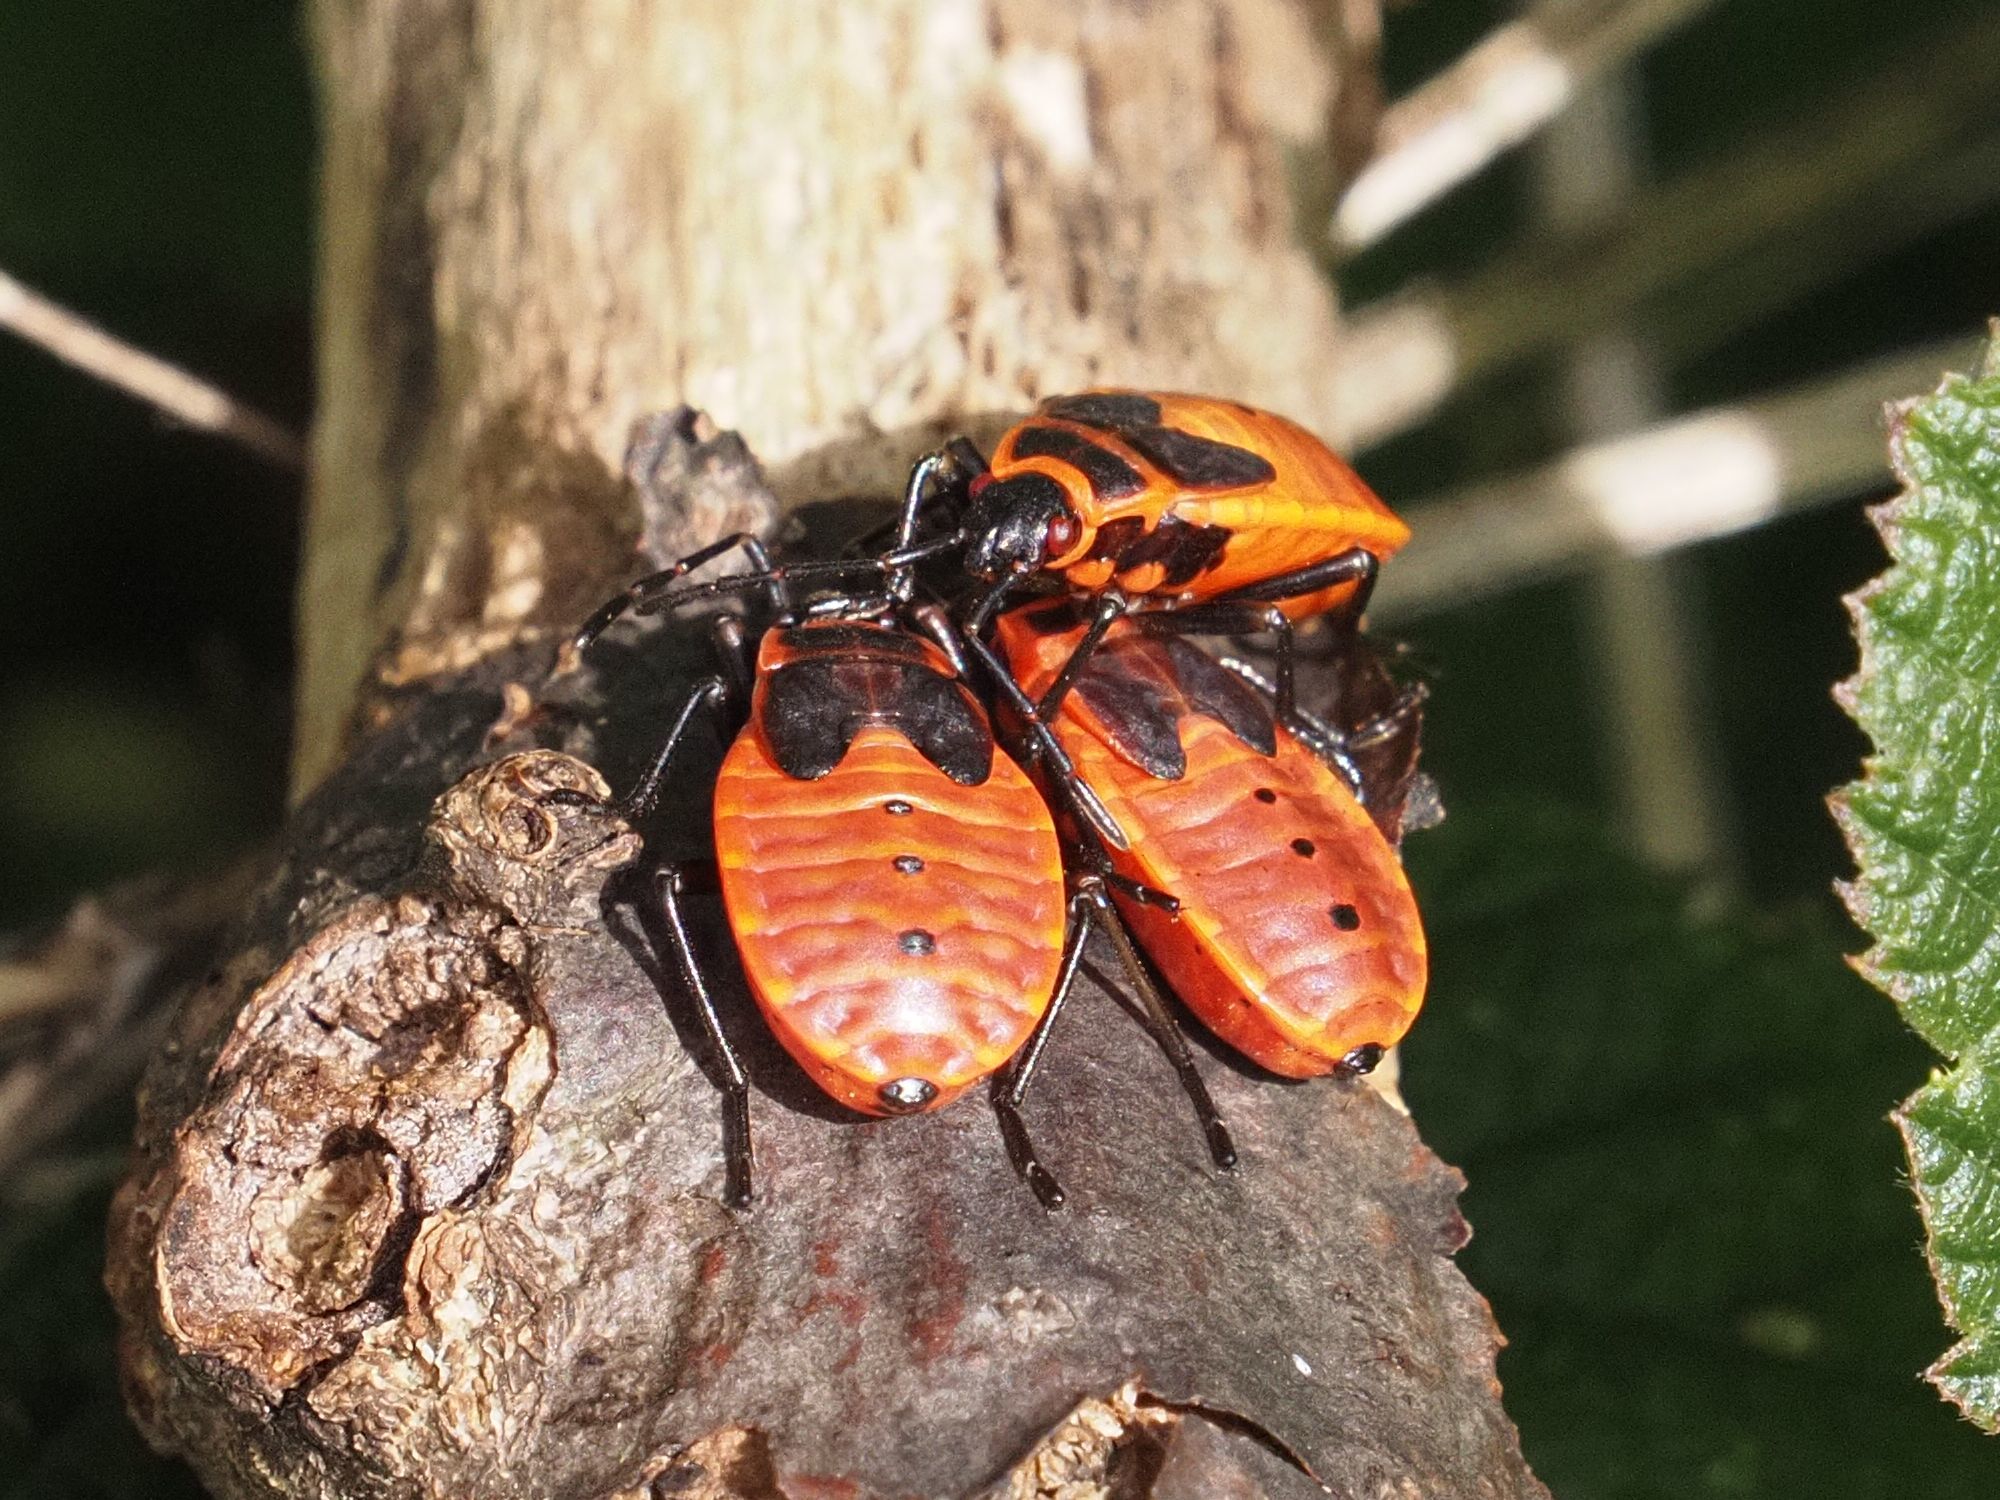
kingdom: Animalia
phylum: Arthropoda
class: Insecta
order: Hemiptera
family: Pyrrhocoridae
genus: Pyrrhocoris
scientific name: Pyrrhocoris apterus
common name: Firebug
